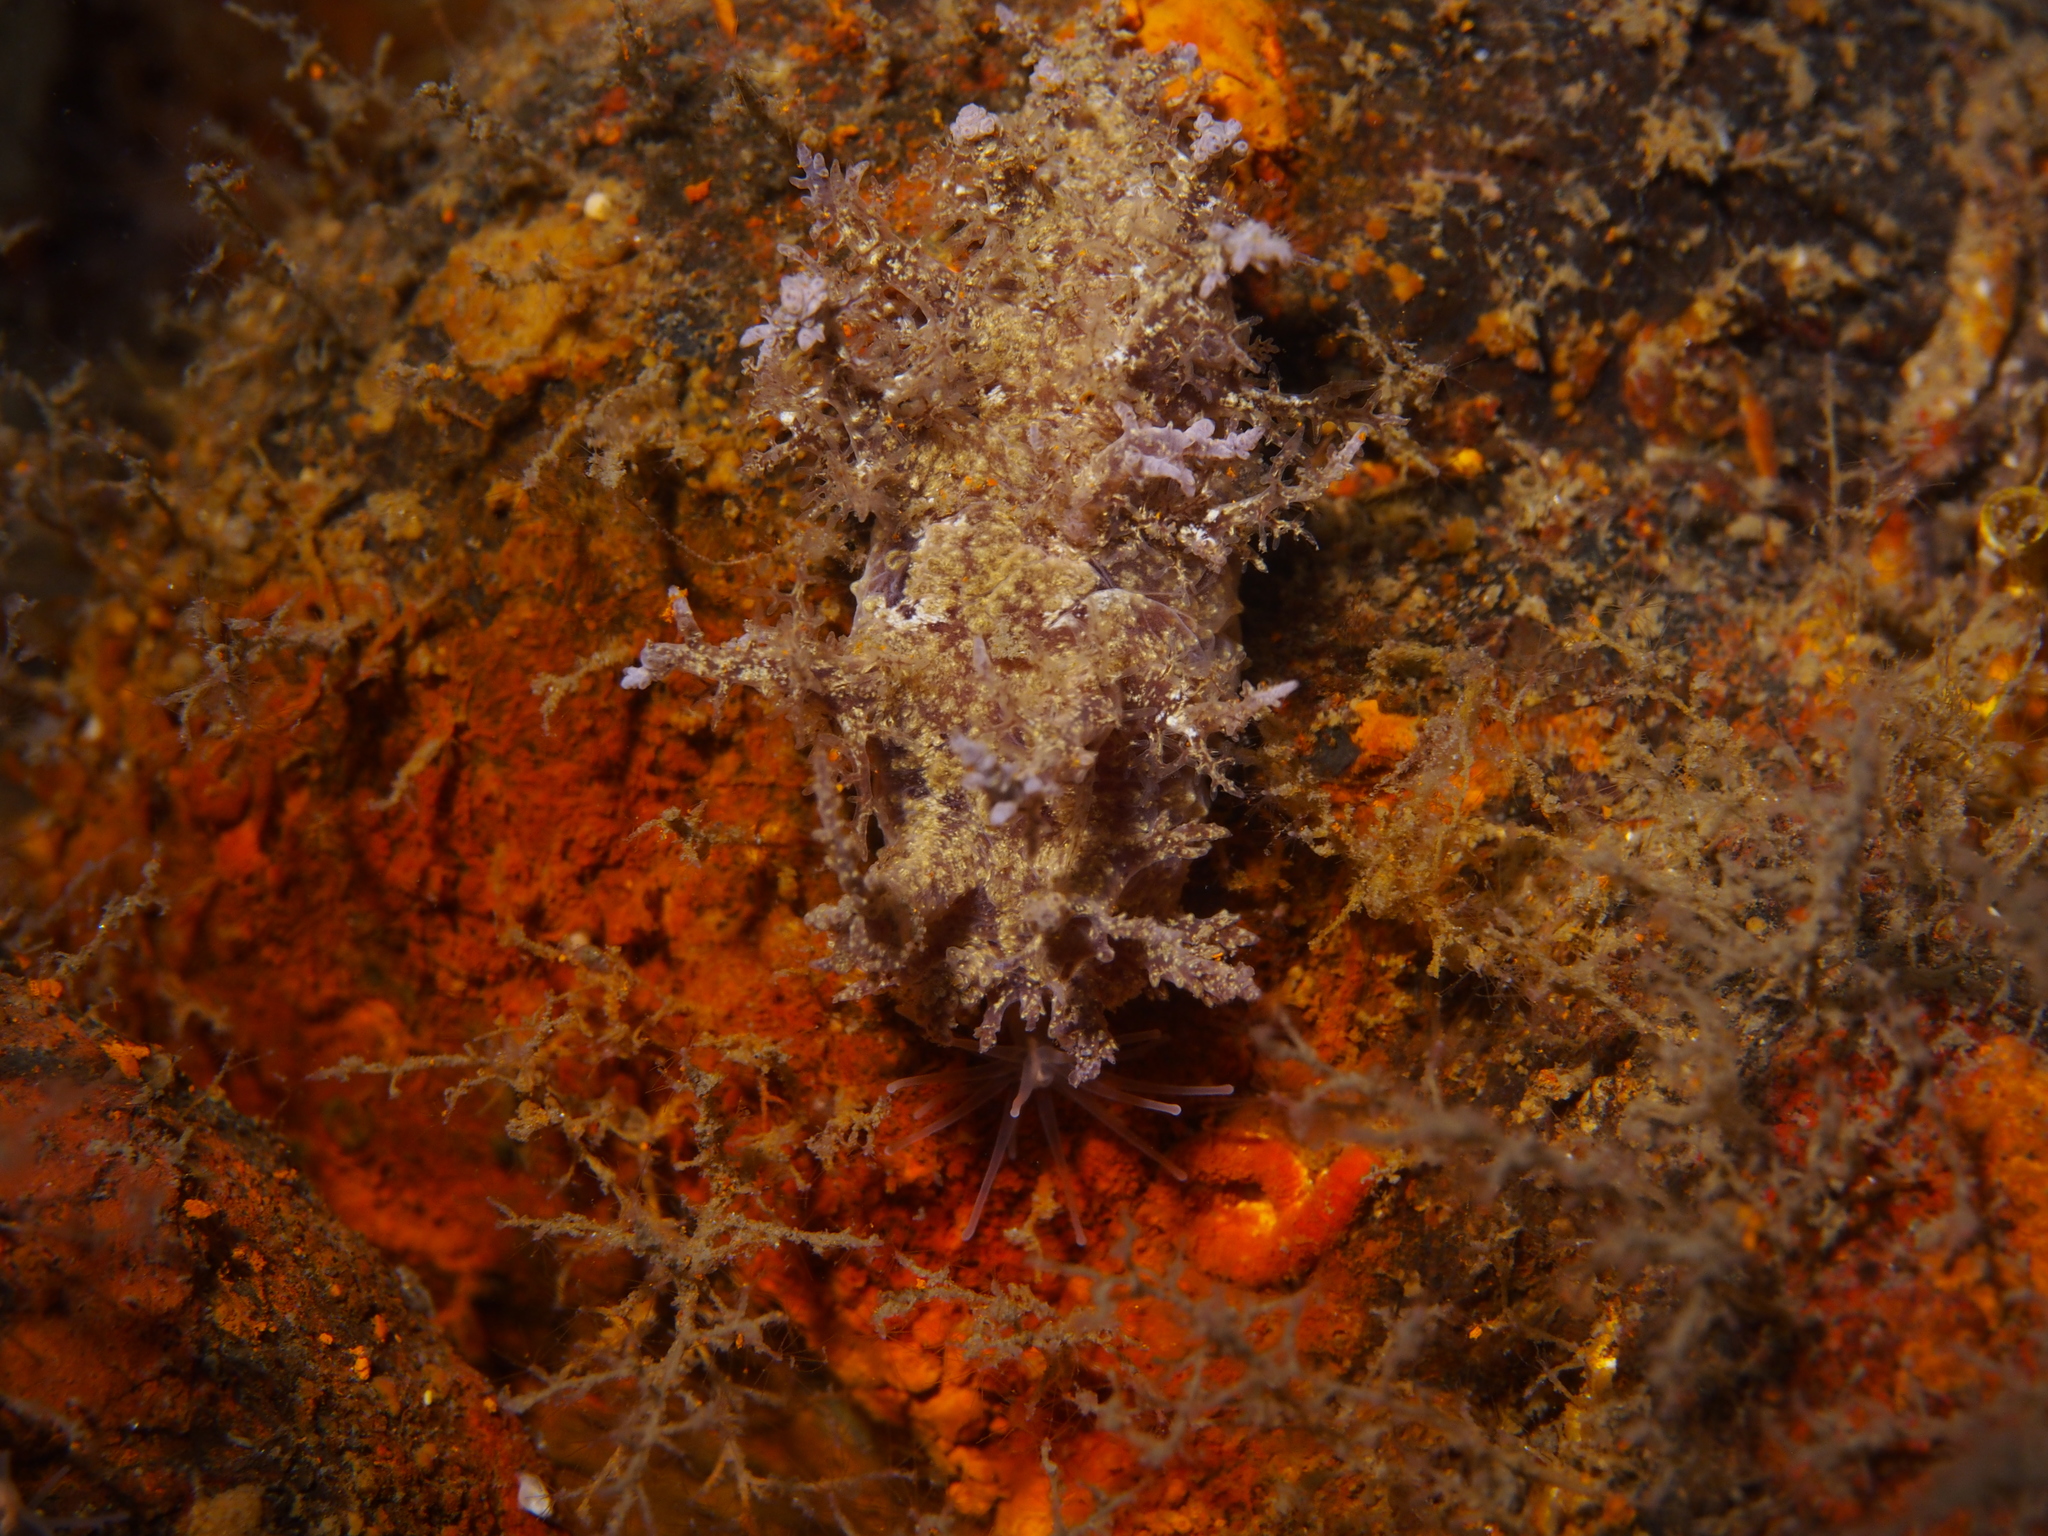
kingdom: Animalia
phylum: Mollusca
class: Gastropoda
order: Nudibranchia
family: Dendronotidae
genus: Dendronotus
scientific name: Dendronotus europaeus
